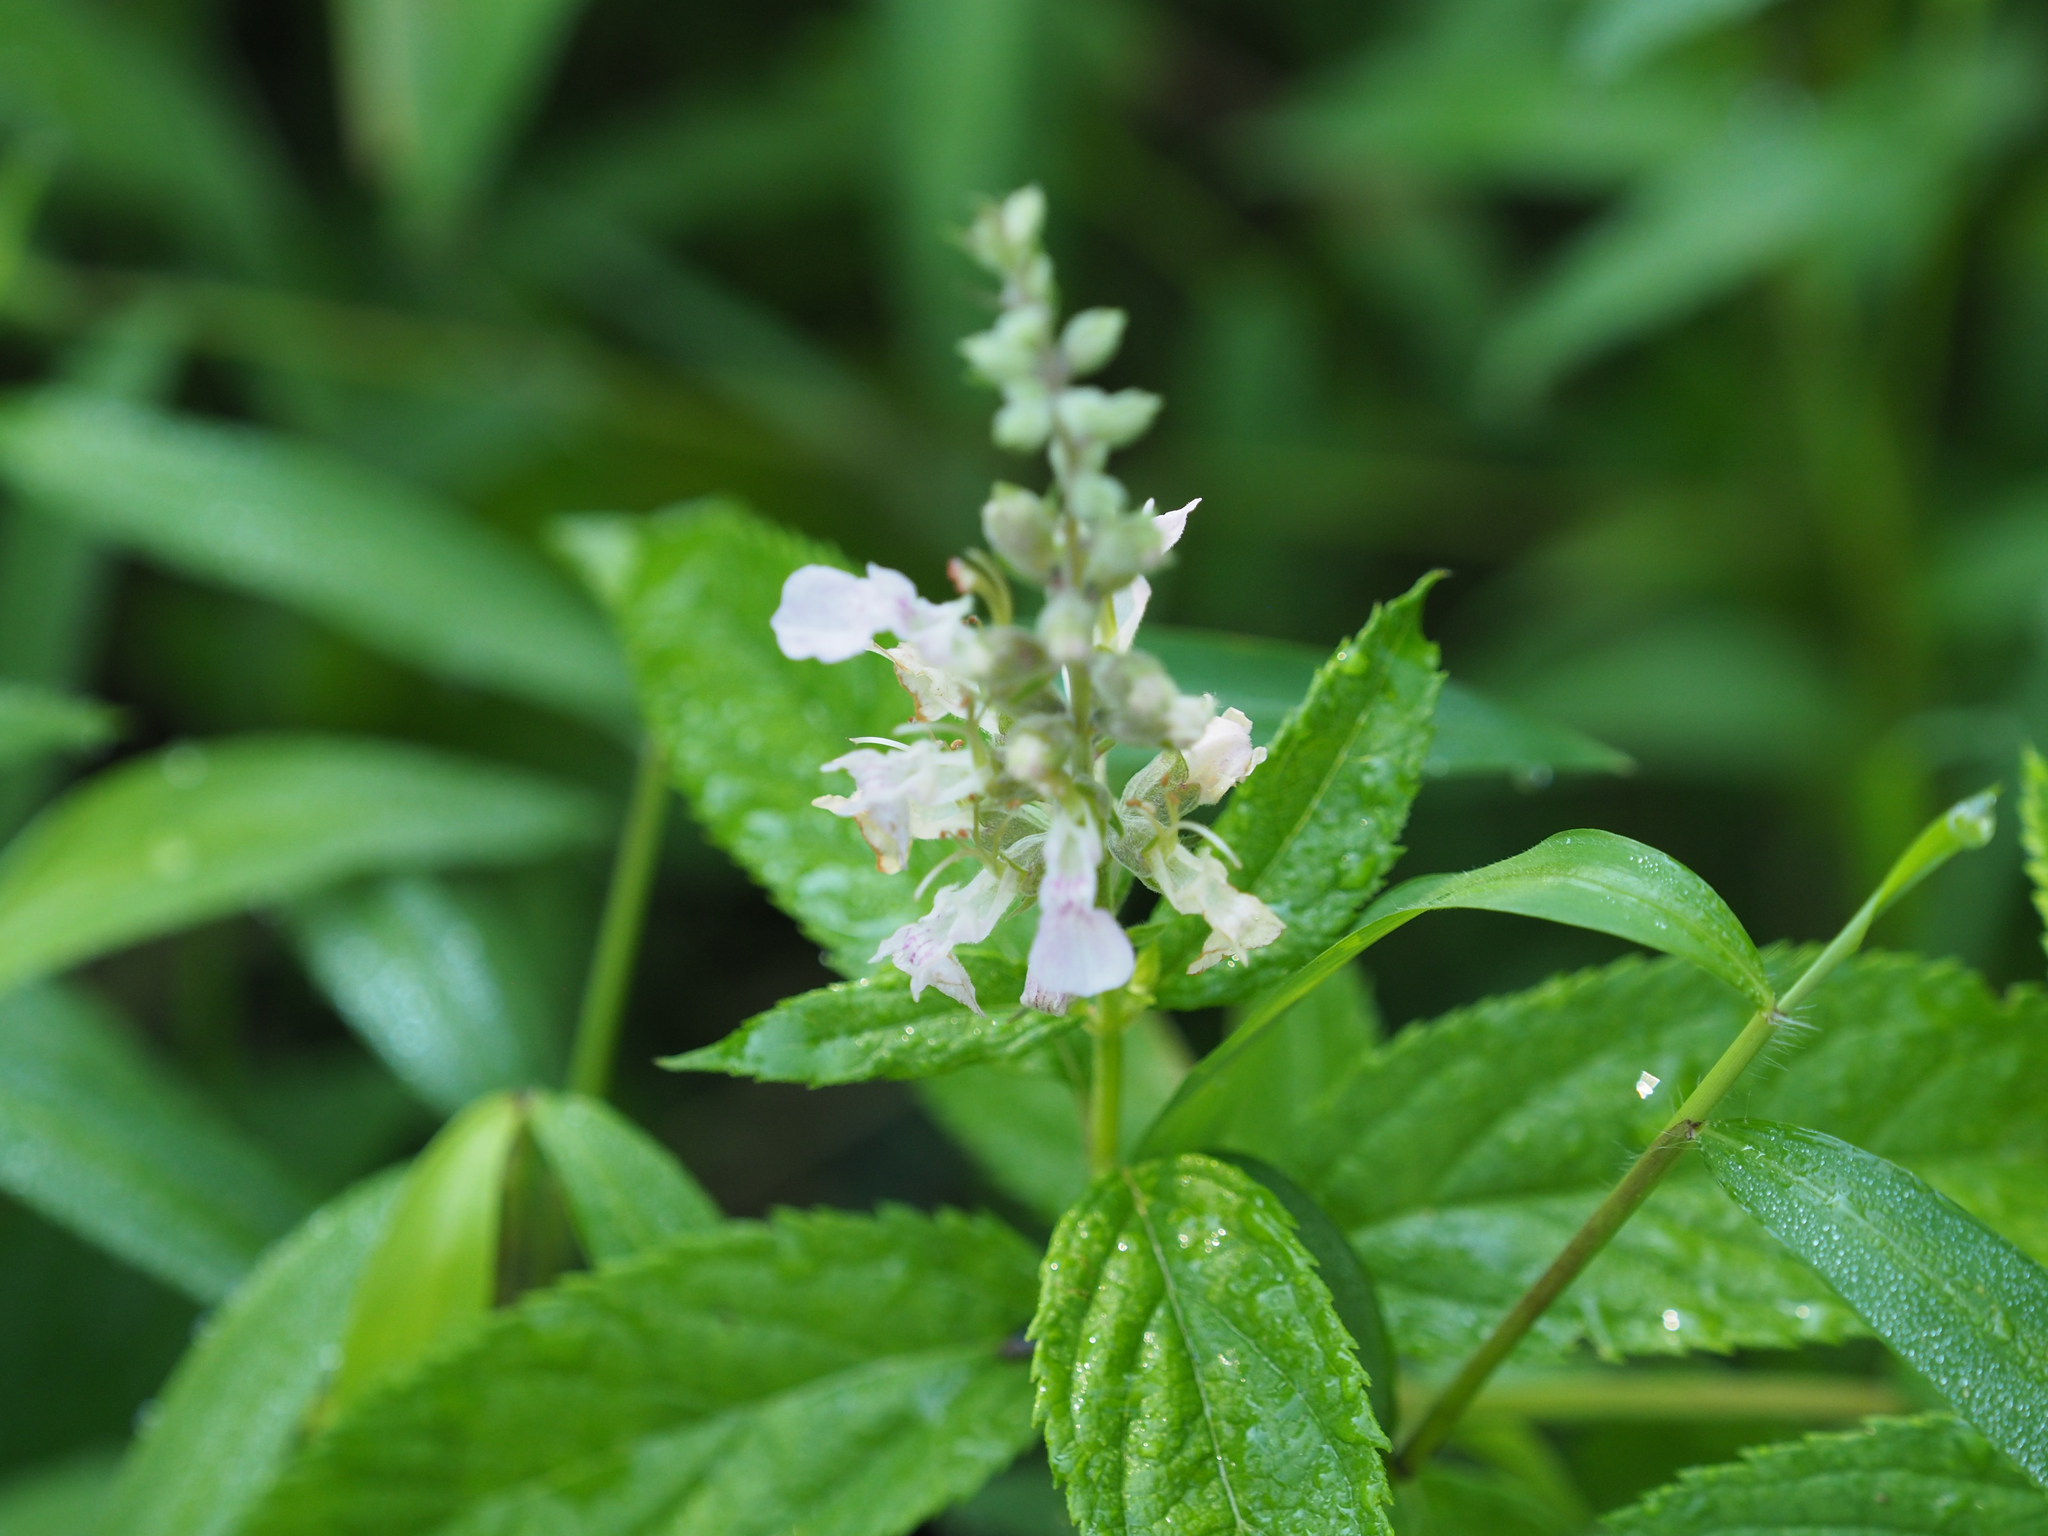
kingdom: Plantae
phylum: Tracheophyta
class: Magnoliopsida
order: Lamiales
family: Lamiaceae
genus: Teucrium
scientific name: Teucrium canadense
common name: American germander
